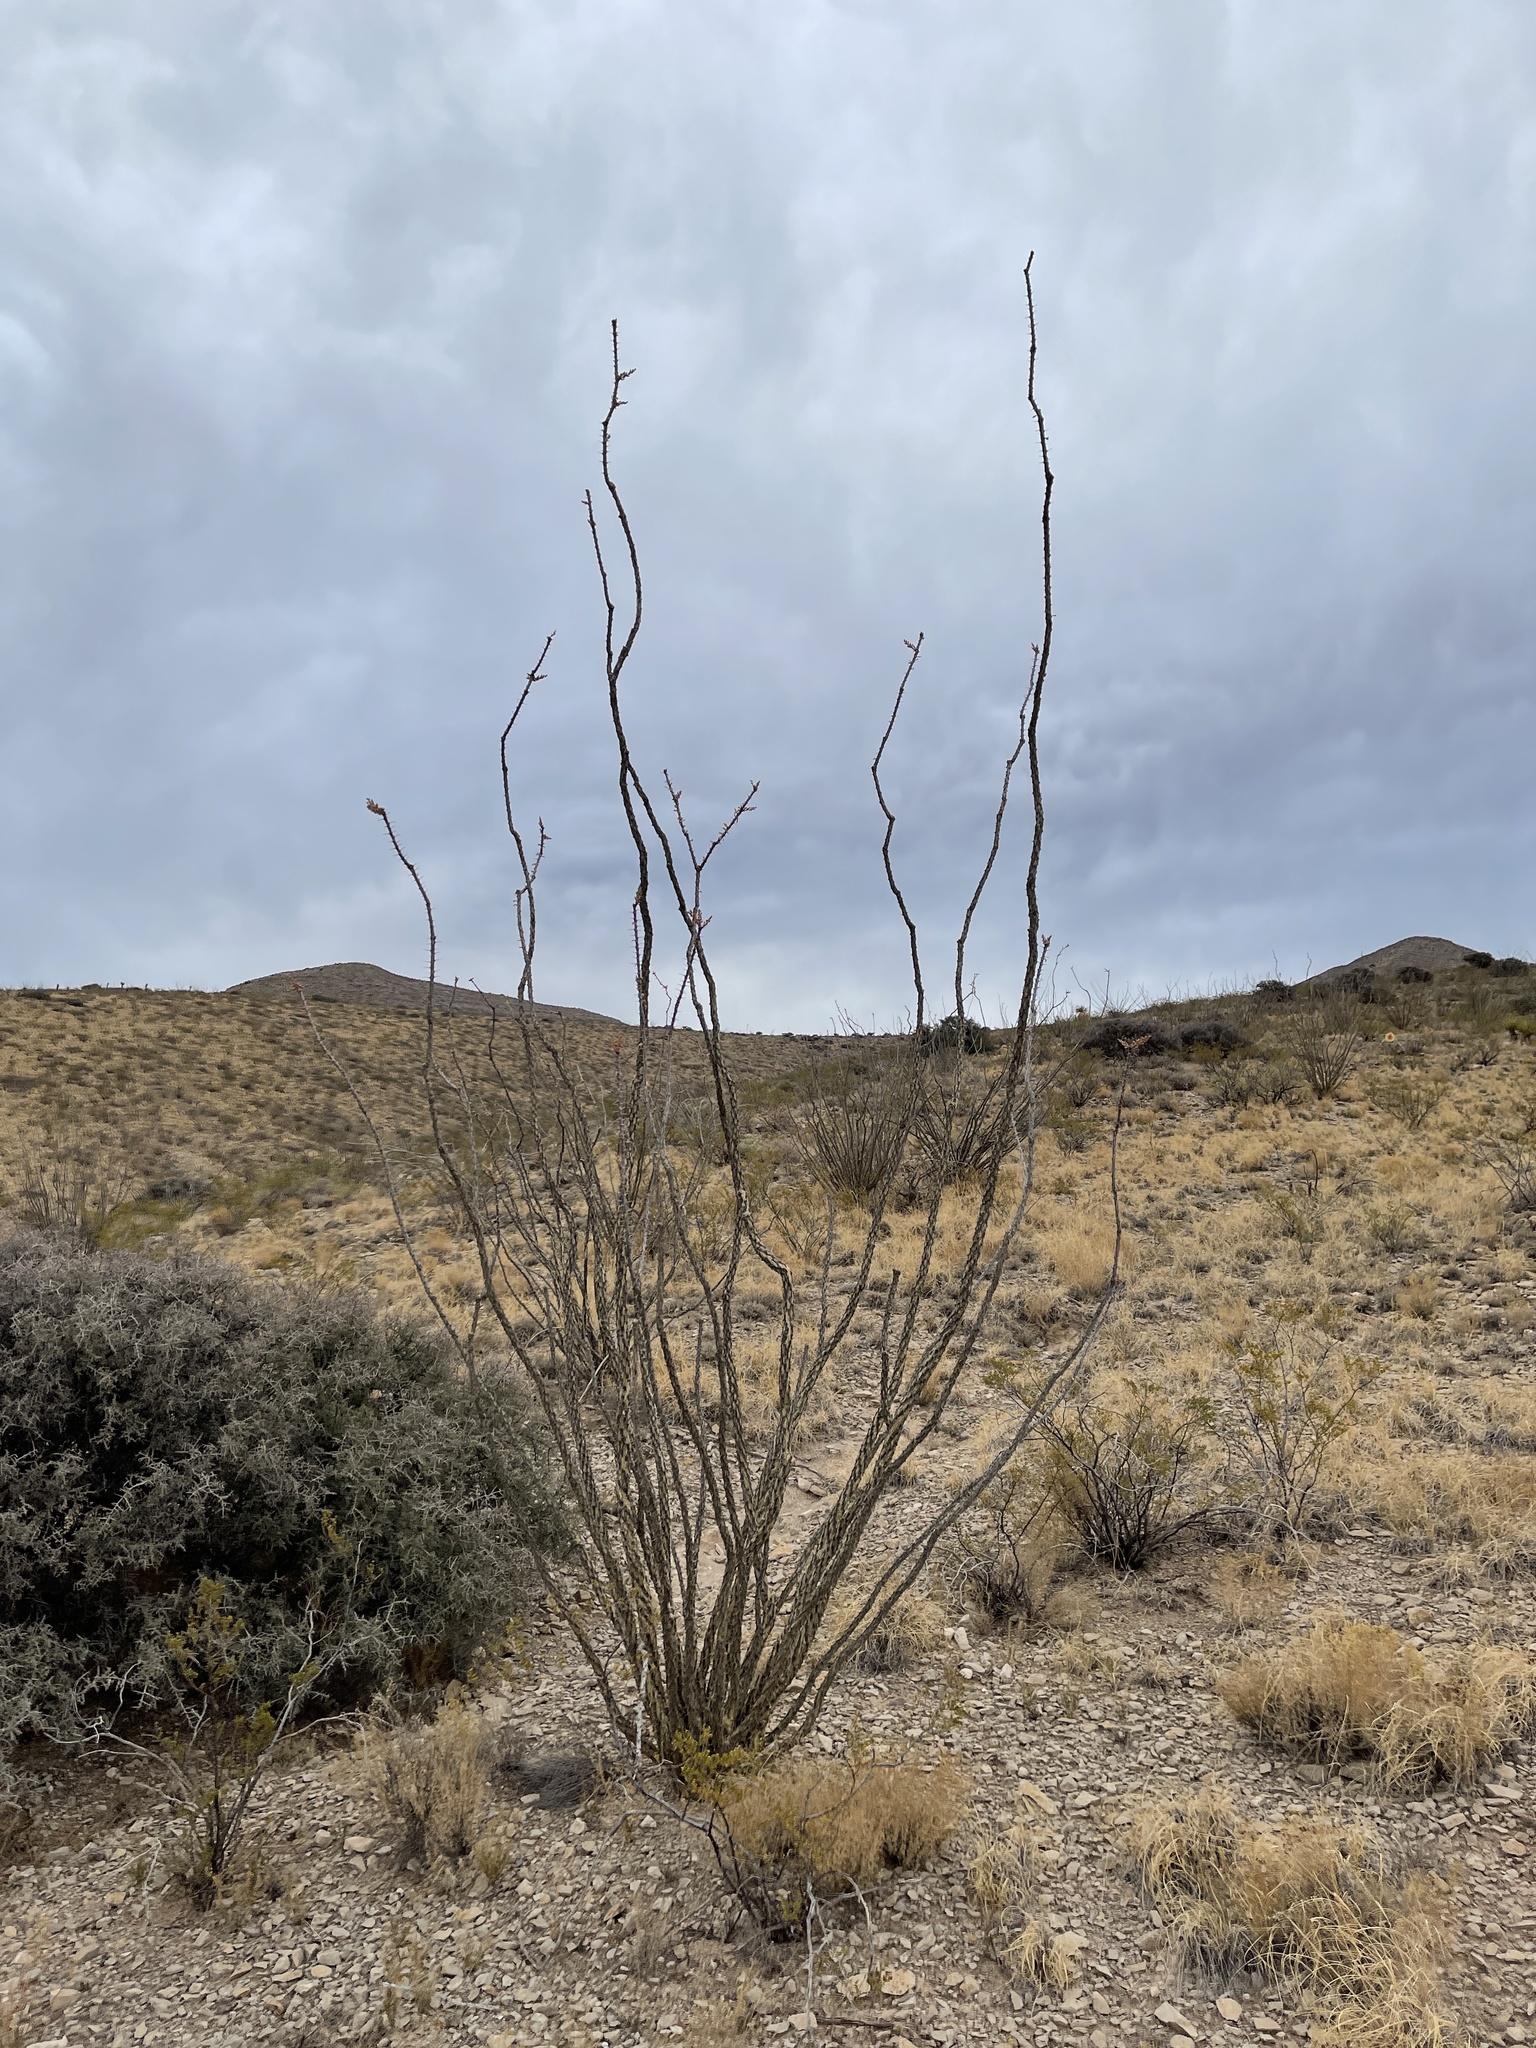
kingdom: Plantae
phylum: Tracheophyta
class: Magnoliopsida
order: Ericales
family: Fouquieriaceae
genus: Fouquieria
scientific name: Fouquieria splendens
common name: Vine-cactus
